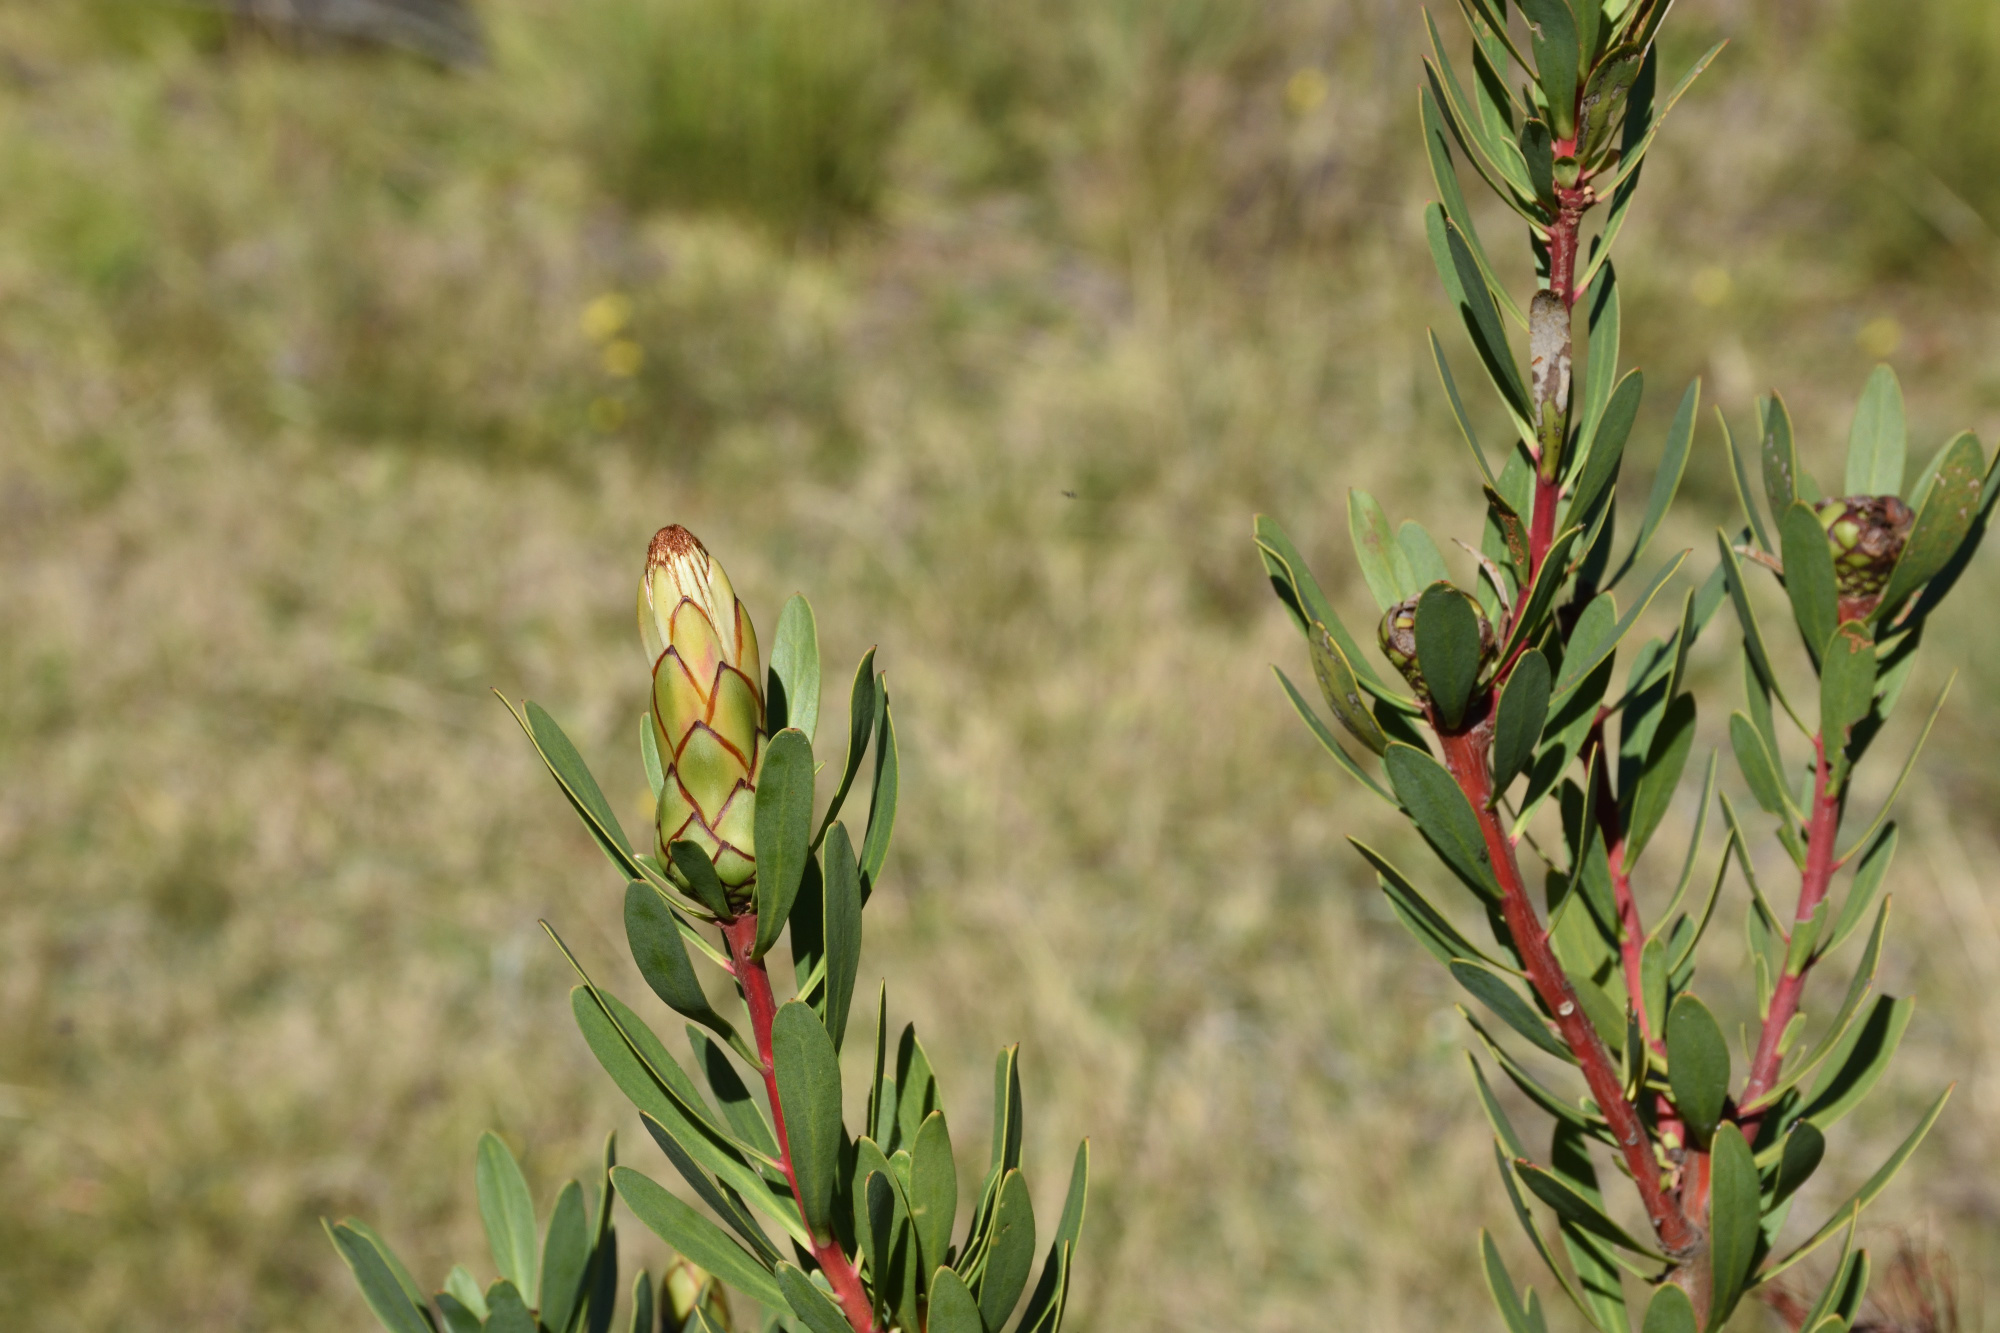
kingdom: Plantae
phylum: Tracheophyta
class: Magnoliopsida
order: Proteales
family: Proteaceae
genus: Protea
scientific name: Protea lanceolata
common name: Lance-leaved protea
